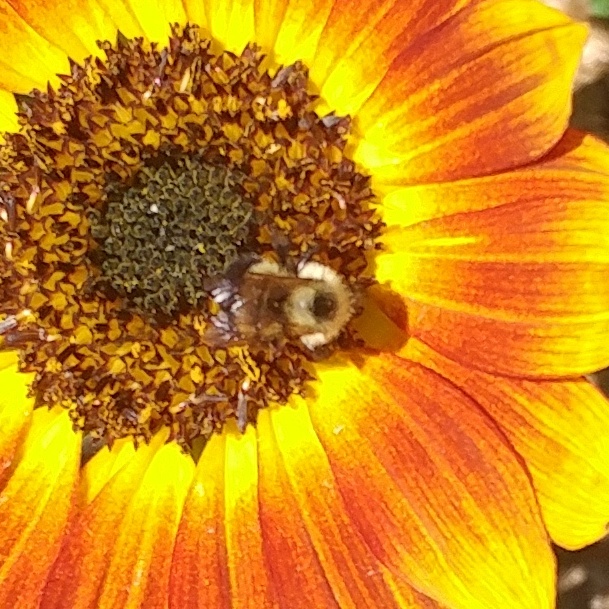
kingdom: Animalia
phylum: Arthropoda
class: Insecta
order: Hymenoptera
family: Apidae
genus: Bombus
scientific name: Bombus vagans
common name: Half-black bumble bee
